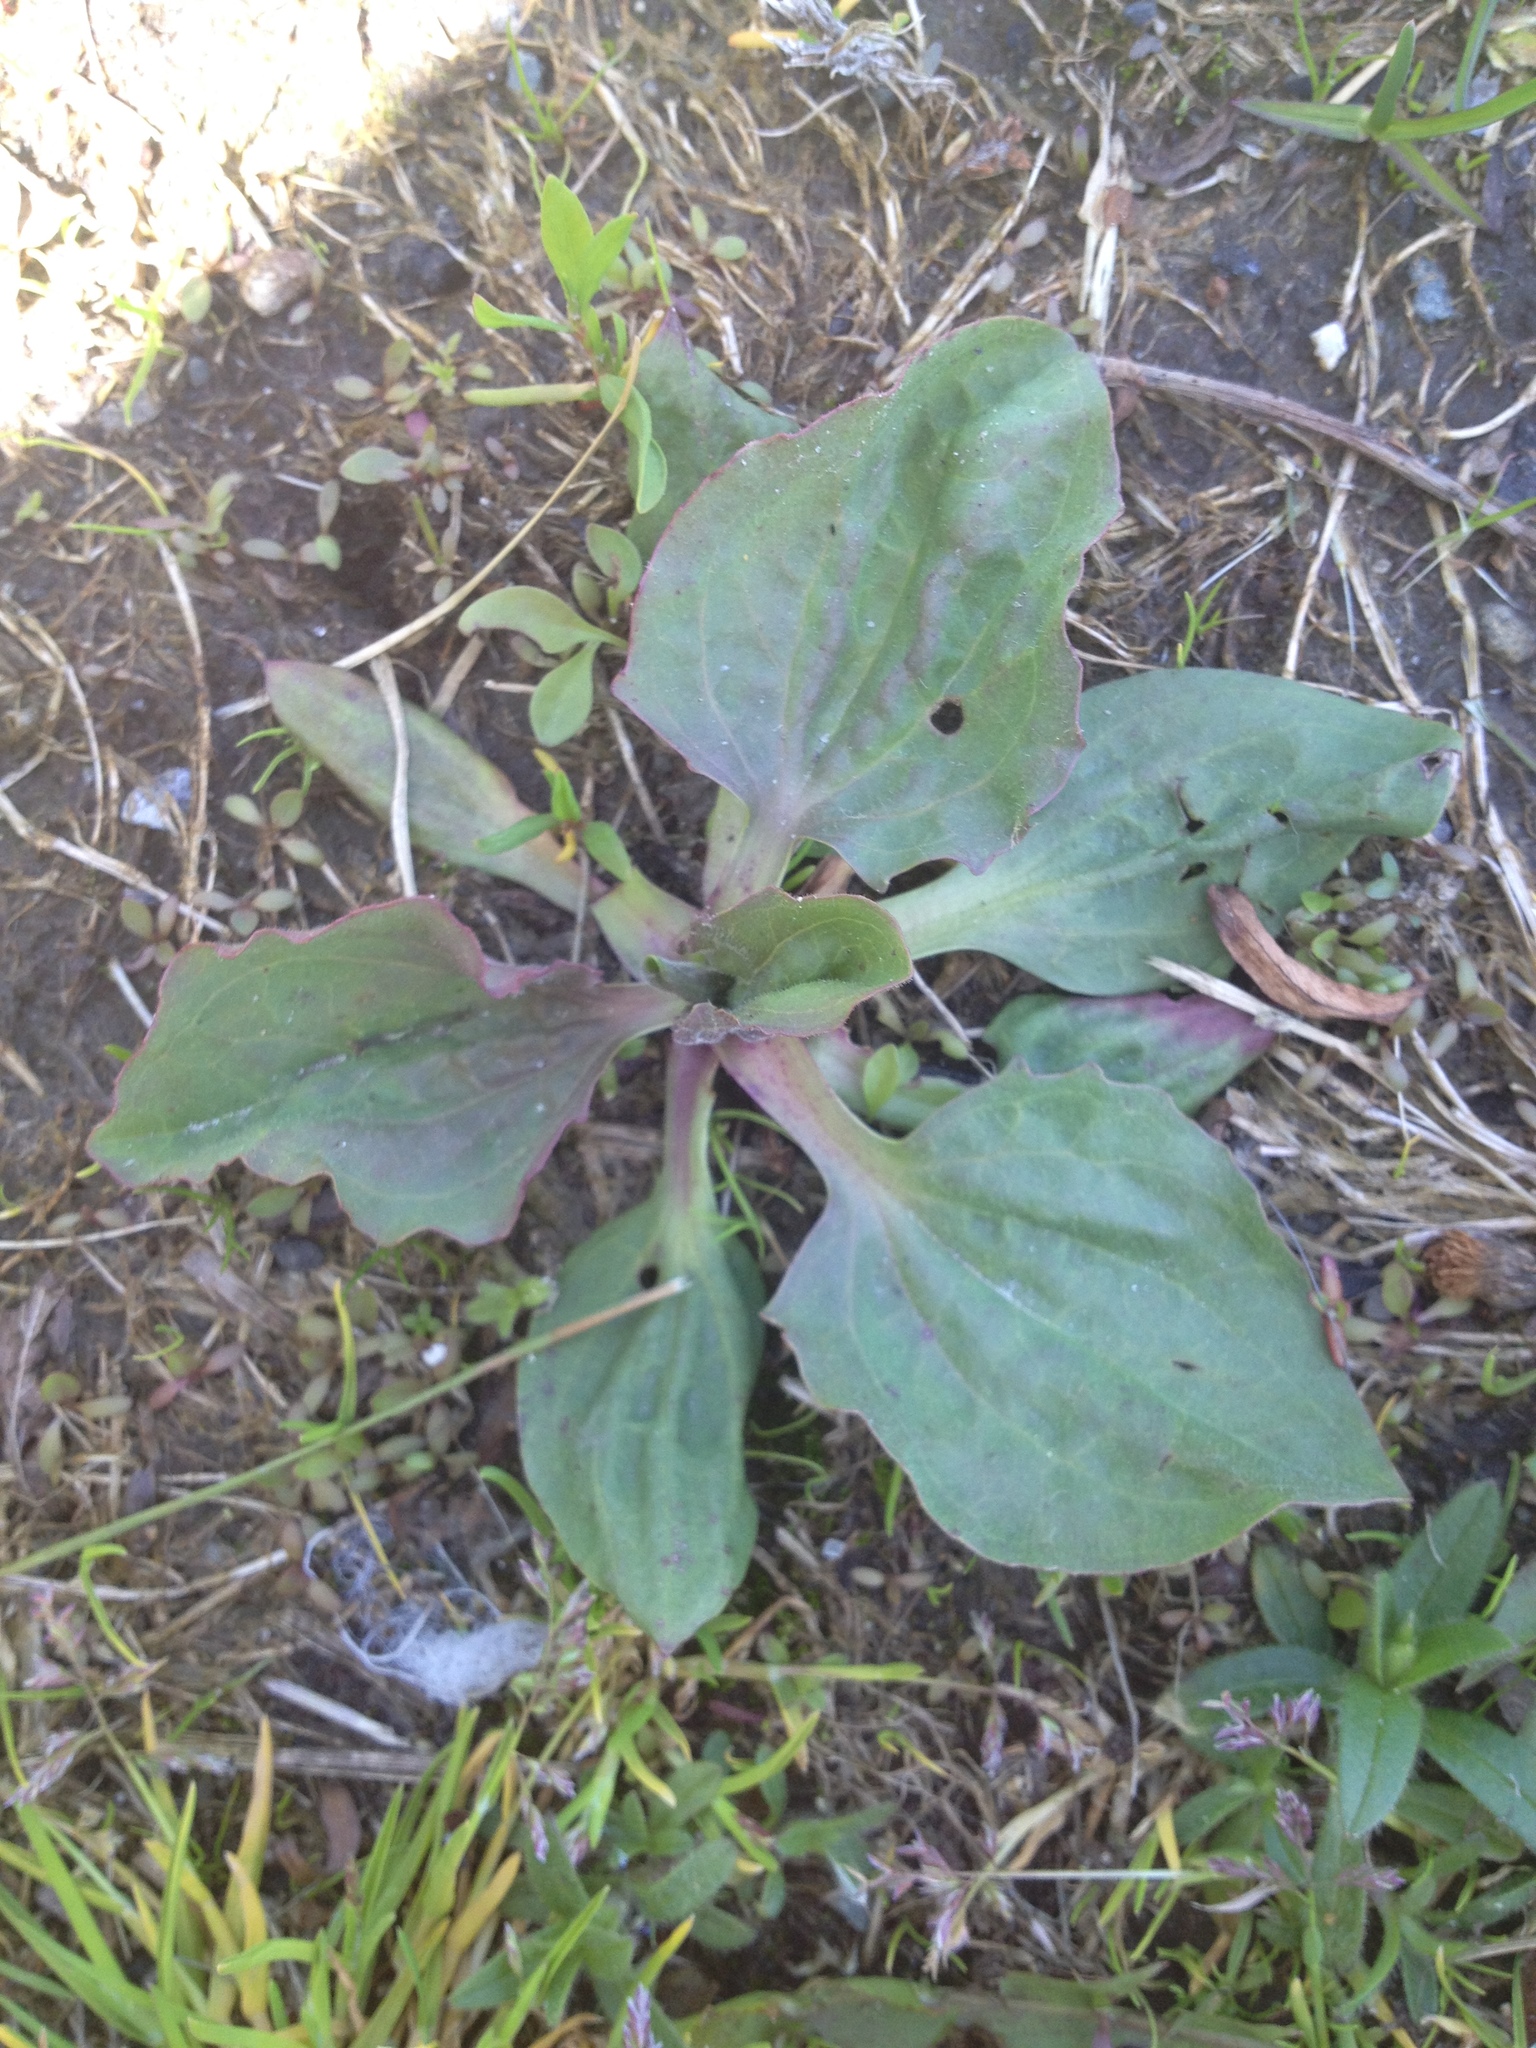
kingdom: Plantae
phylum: Tracheophyta
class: Magnoliopsida
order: Lamiales
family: Plantaginaceae
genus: Plantago
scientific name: Plantago rugelii
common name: American plantain
